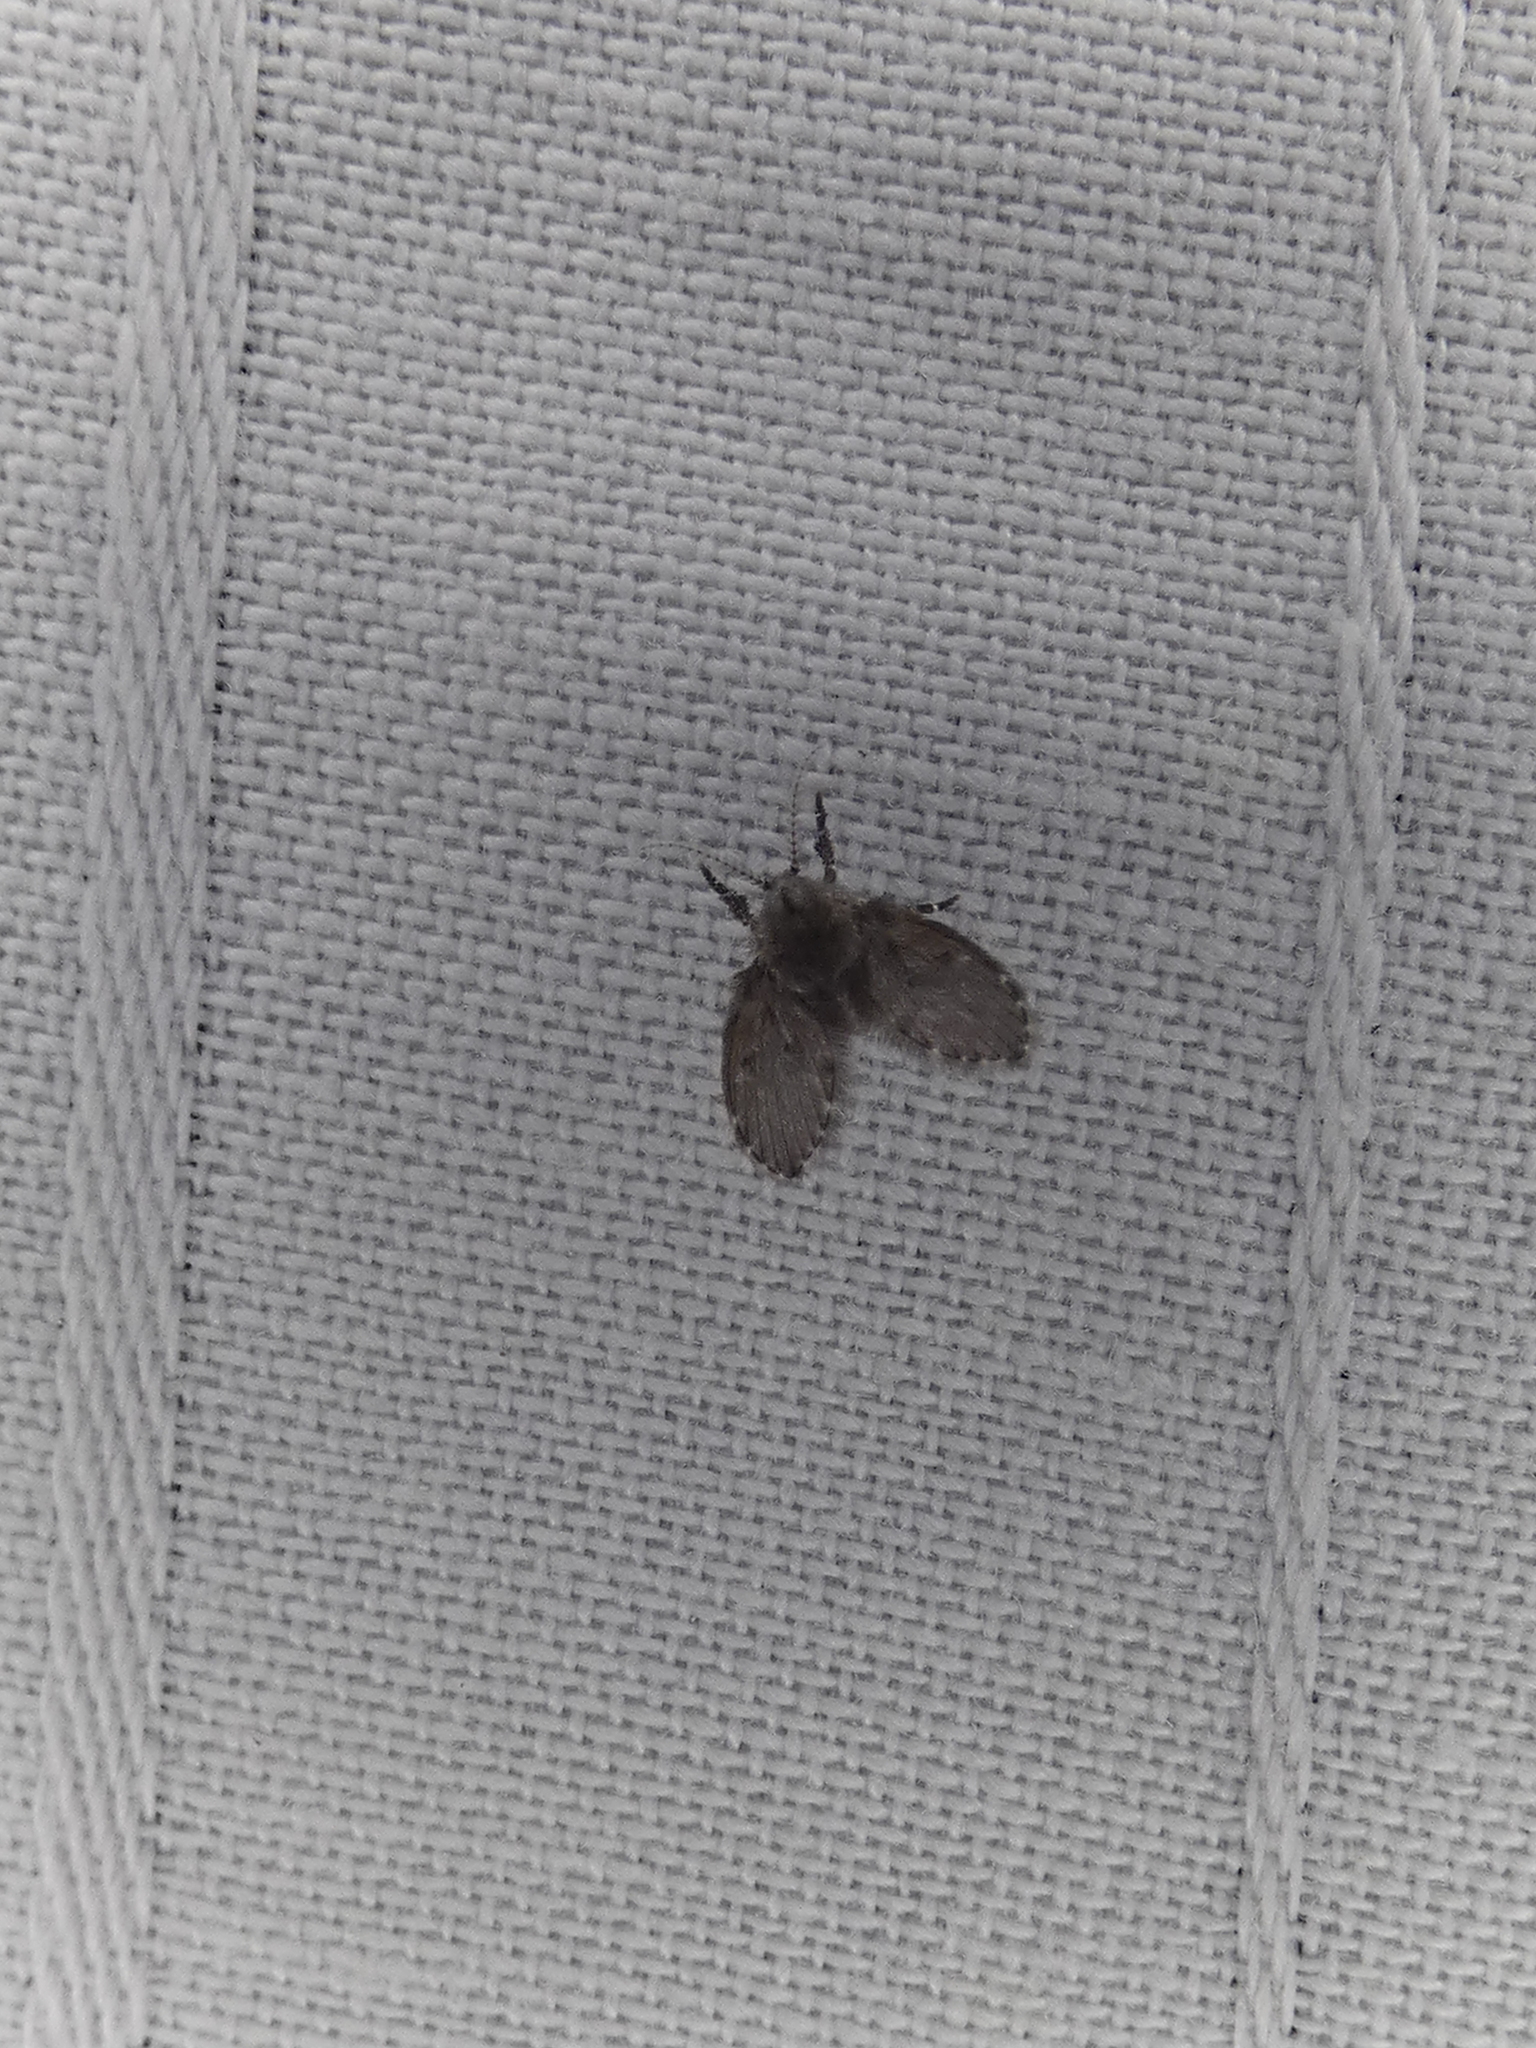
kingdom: Animalia
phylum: Arthropoda
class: Insecta
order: Diptera
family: Psychodidae
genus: Clogmia
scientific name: Clogmia albipunctatus
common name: White-spotted moth fly
